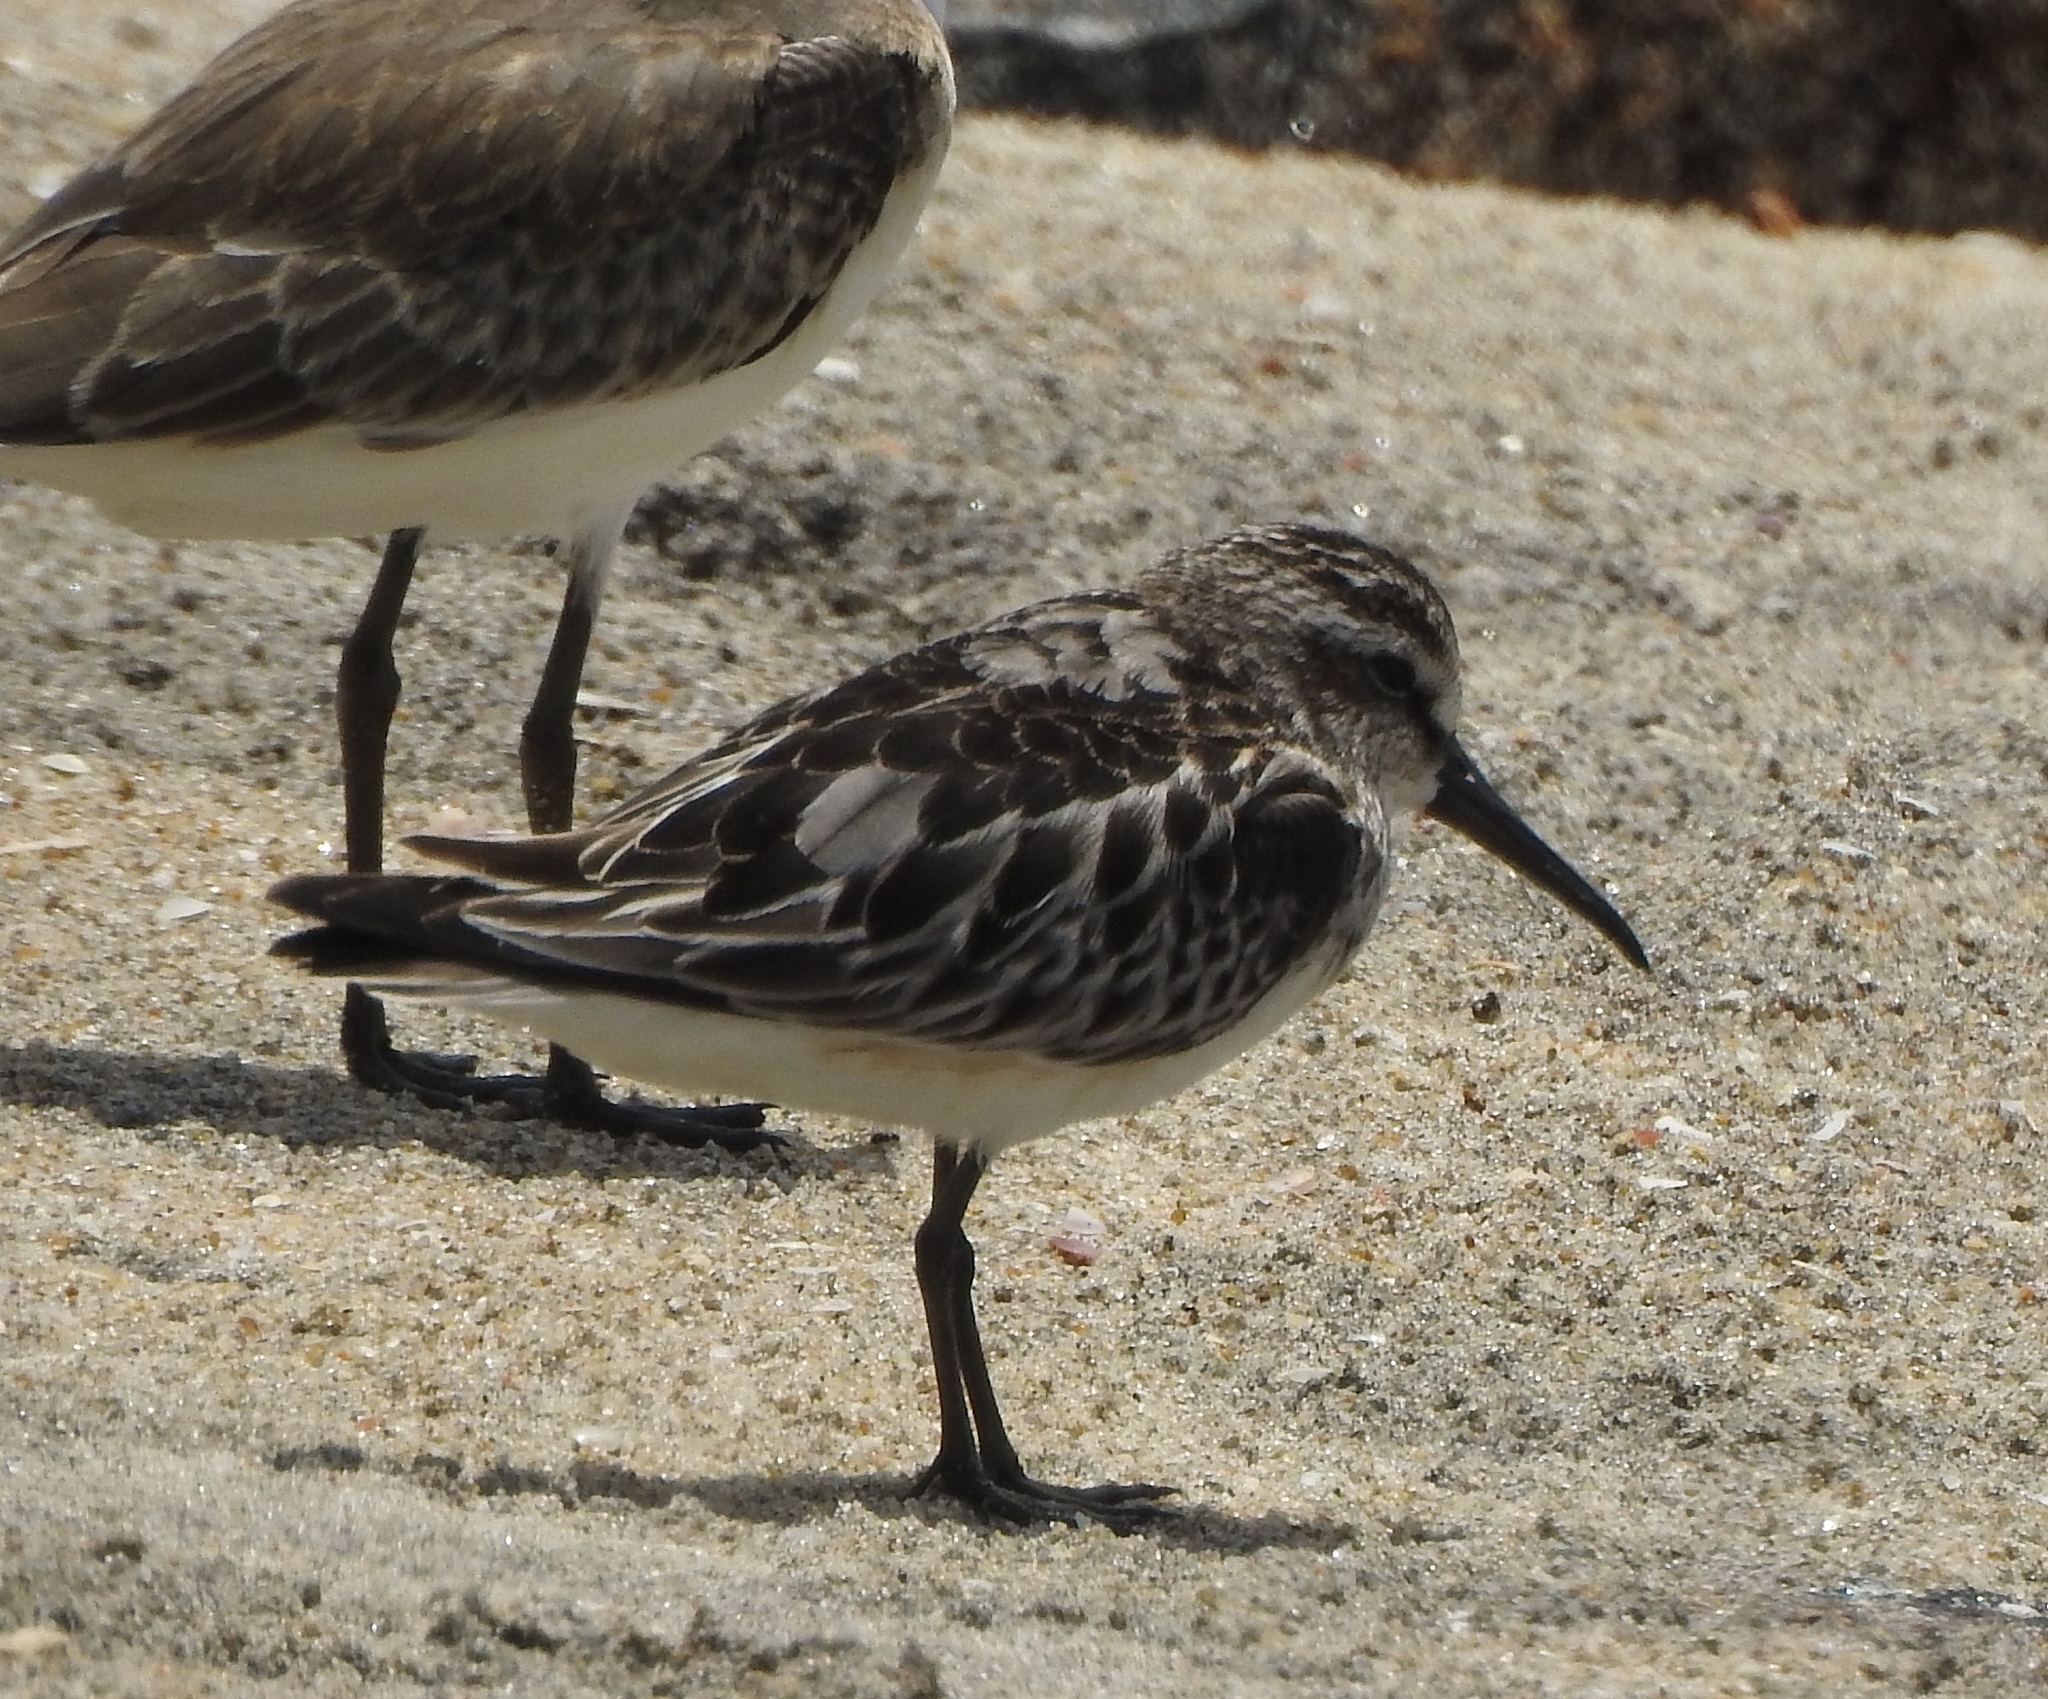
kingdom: Animalia
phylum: Chordata
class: Aves
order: Charadriiformes
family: Scolopacidae
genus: Calidris
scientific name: Calidris falcinellus
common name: Broad-billed sandpiper
